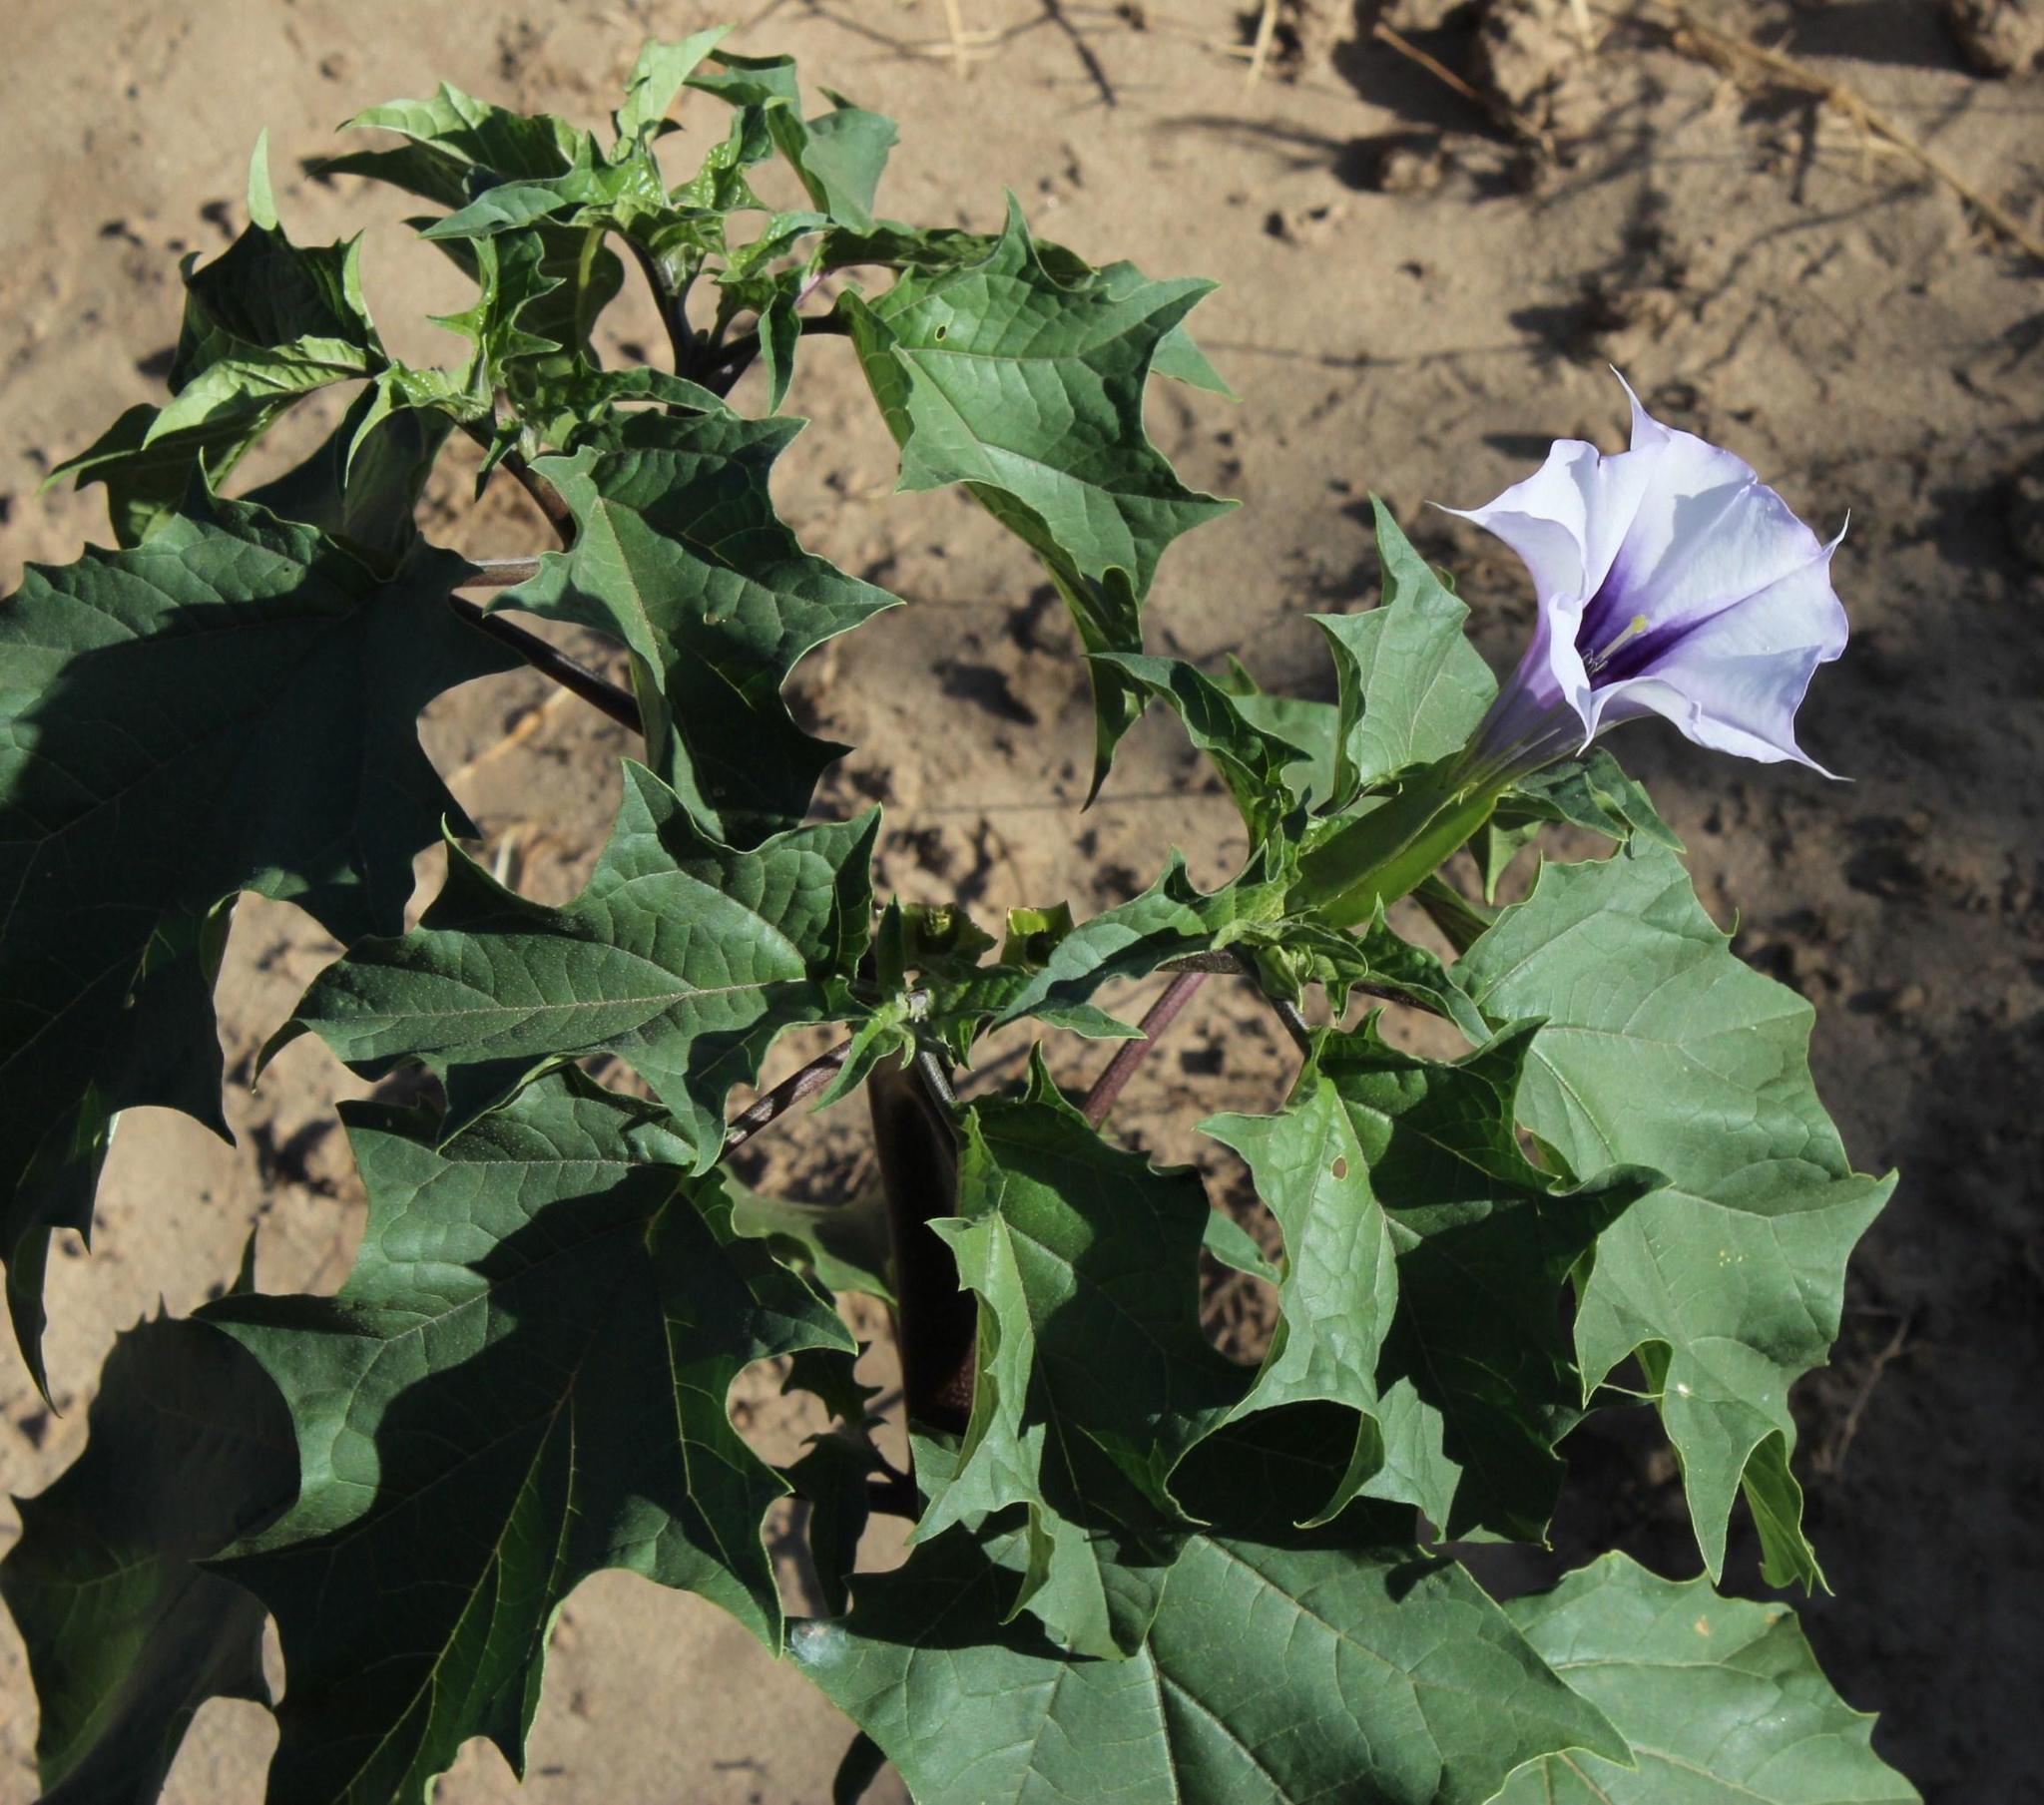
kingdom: Plantae
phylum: Tracheophyta
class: Magnoliopsida
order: Solanales
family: Solanaceae
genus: Datura
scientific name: Datura stramonium
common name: Thorn-apple
